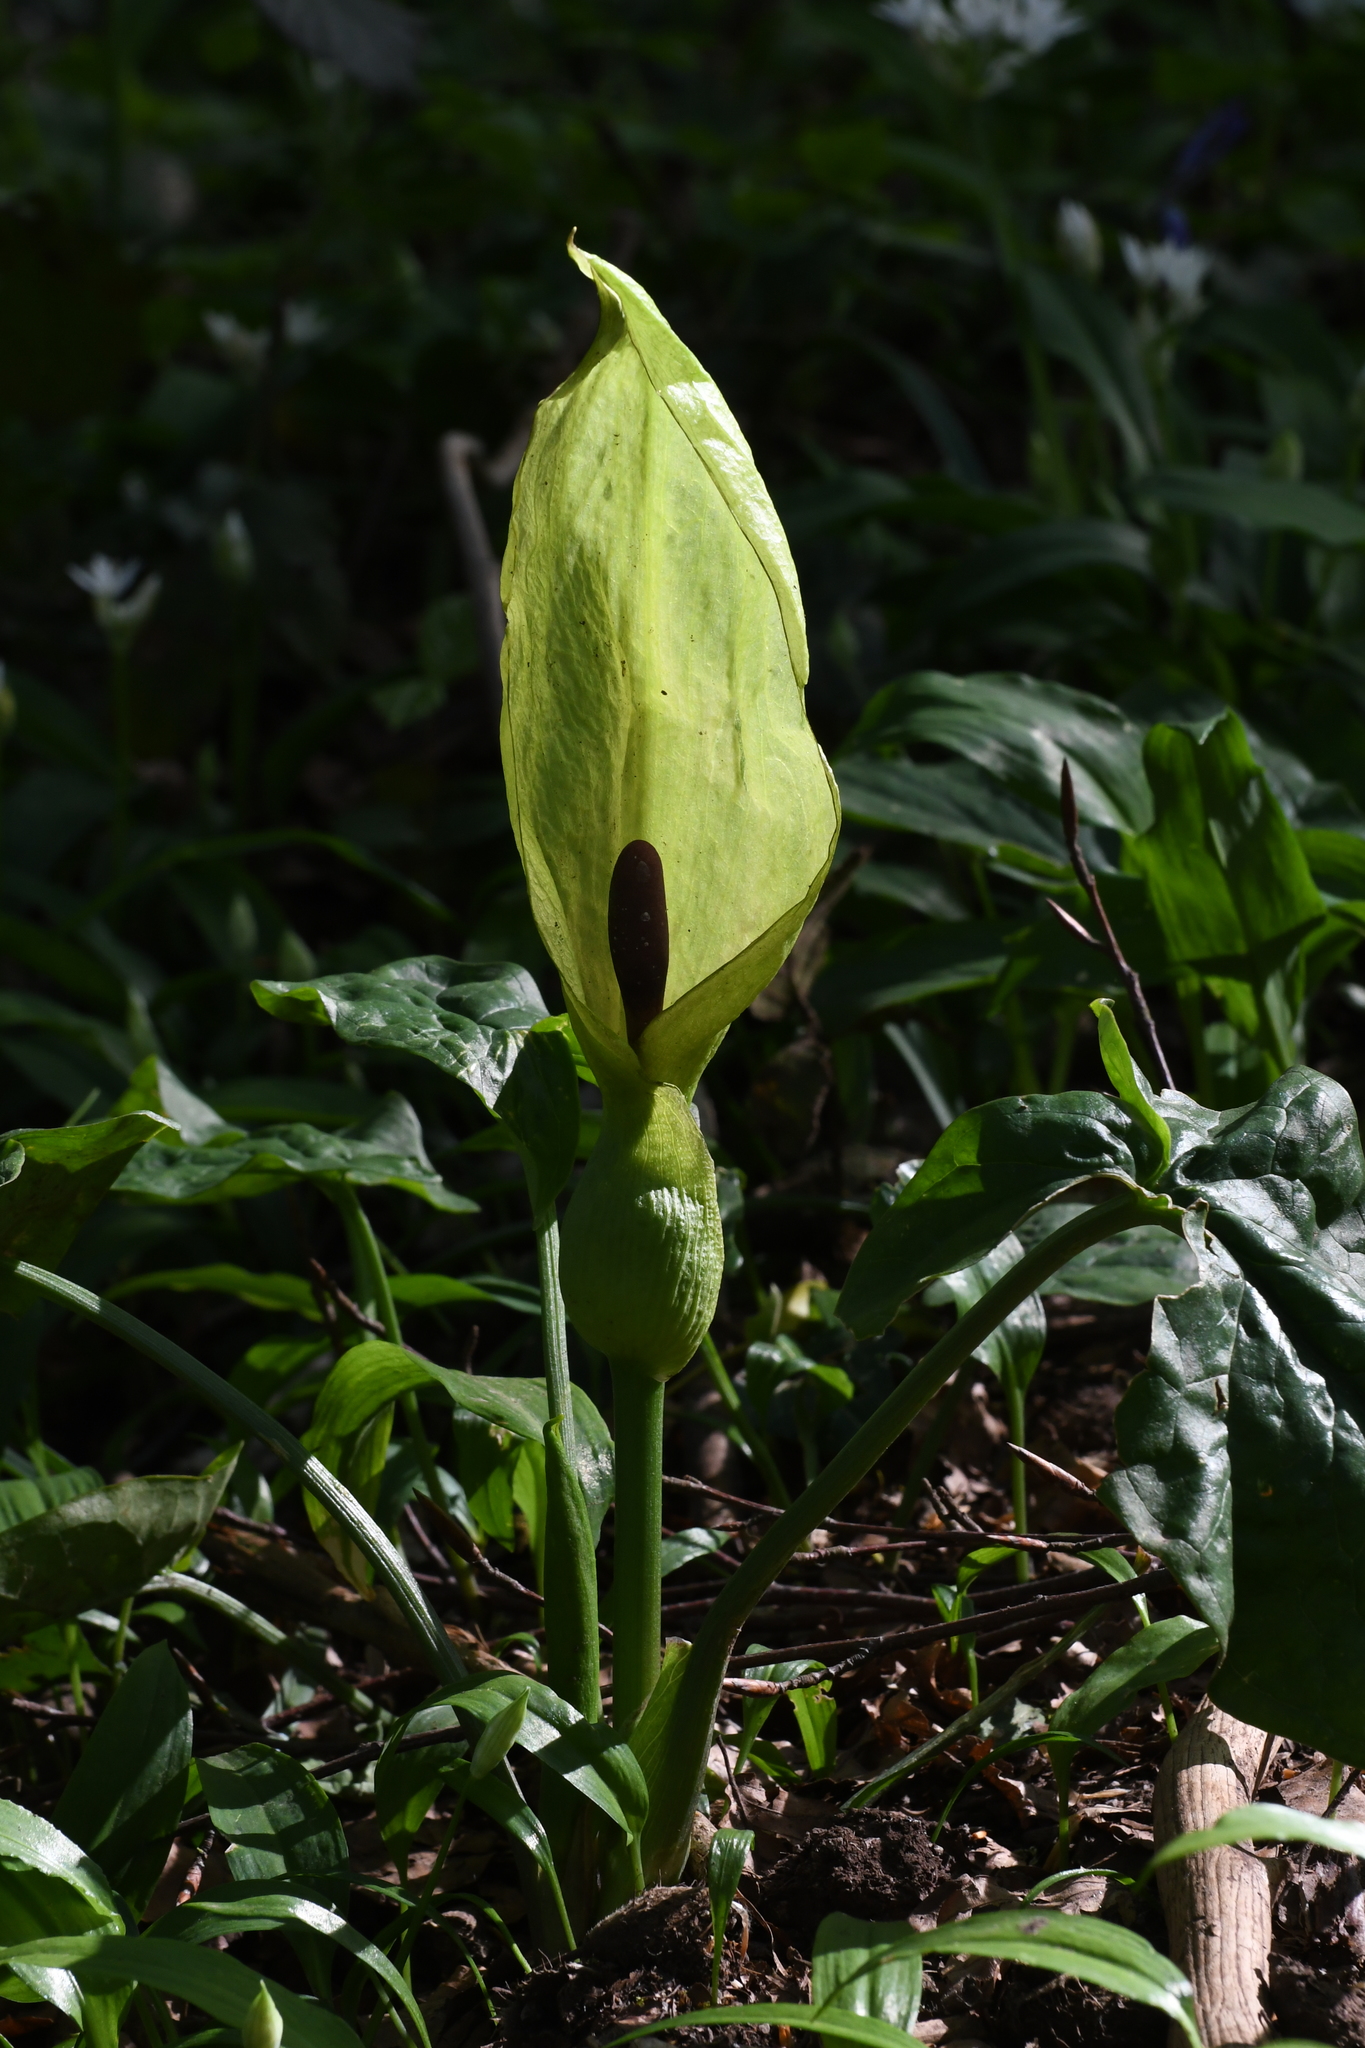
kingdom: Plantae
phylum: Tracheophyta
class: Liliopsida
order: Alismatales
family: Araceae
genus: Arum
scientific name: Arum maculatum
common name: Lords-and-ladies
